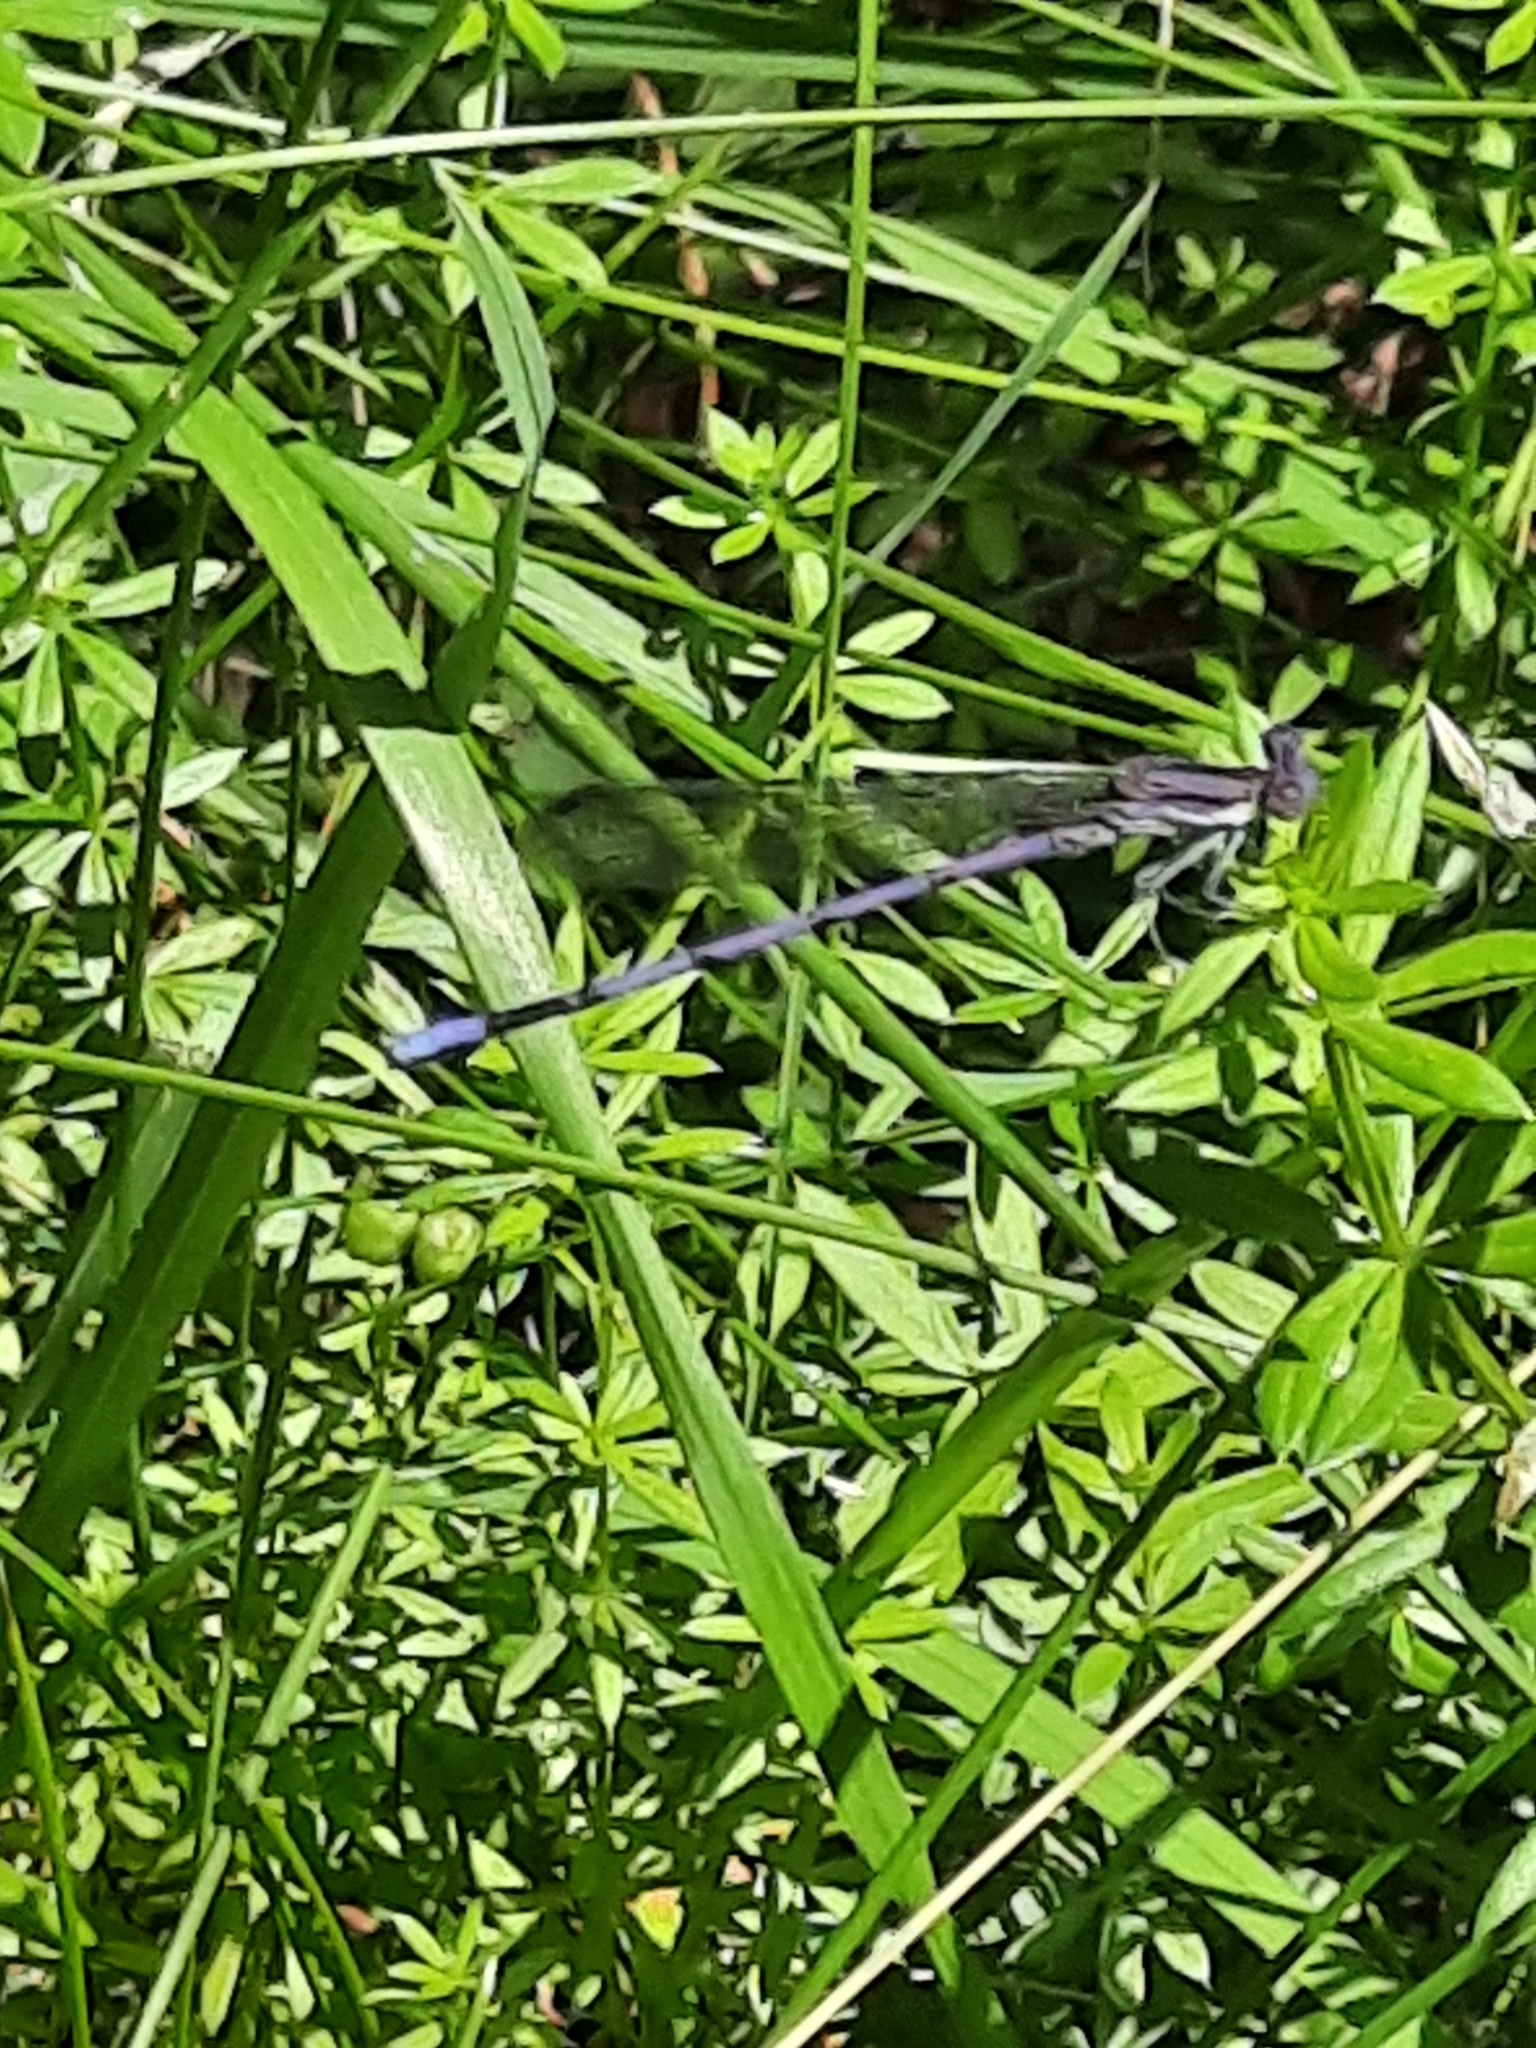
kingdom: Animalia
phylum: Arthropoda
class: Insecta
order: Odonata
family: Coenagrionidae
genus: Argia
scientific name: Argia fumipennis
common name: Variable dancer
